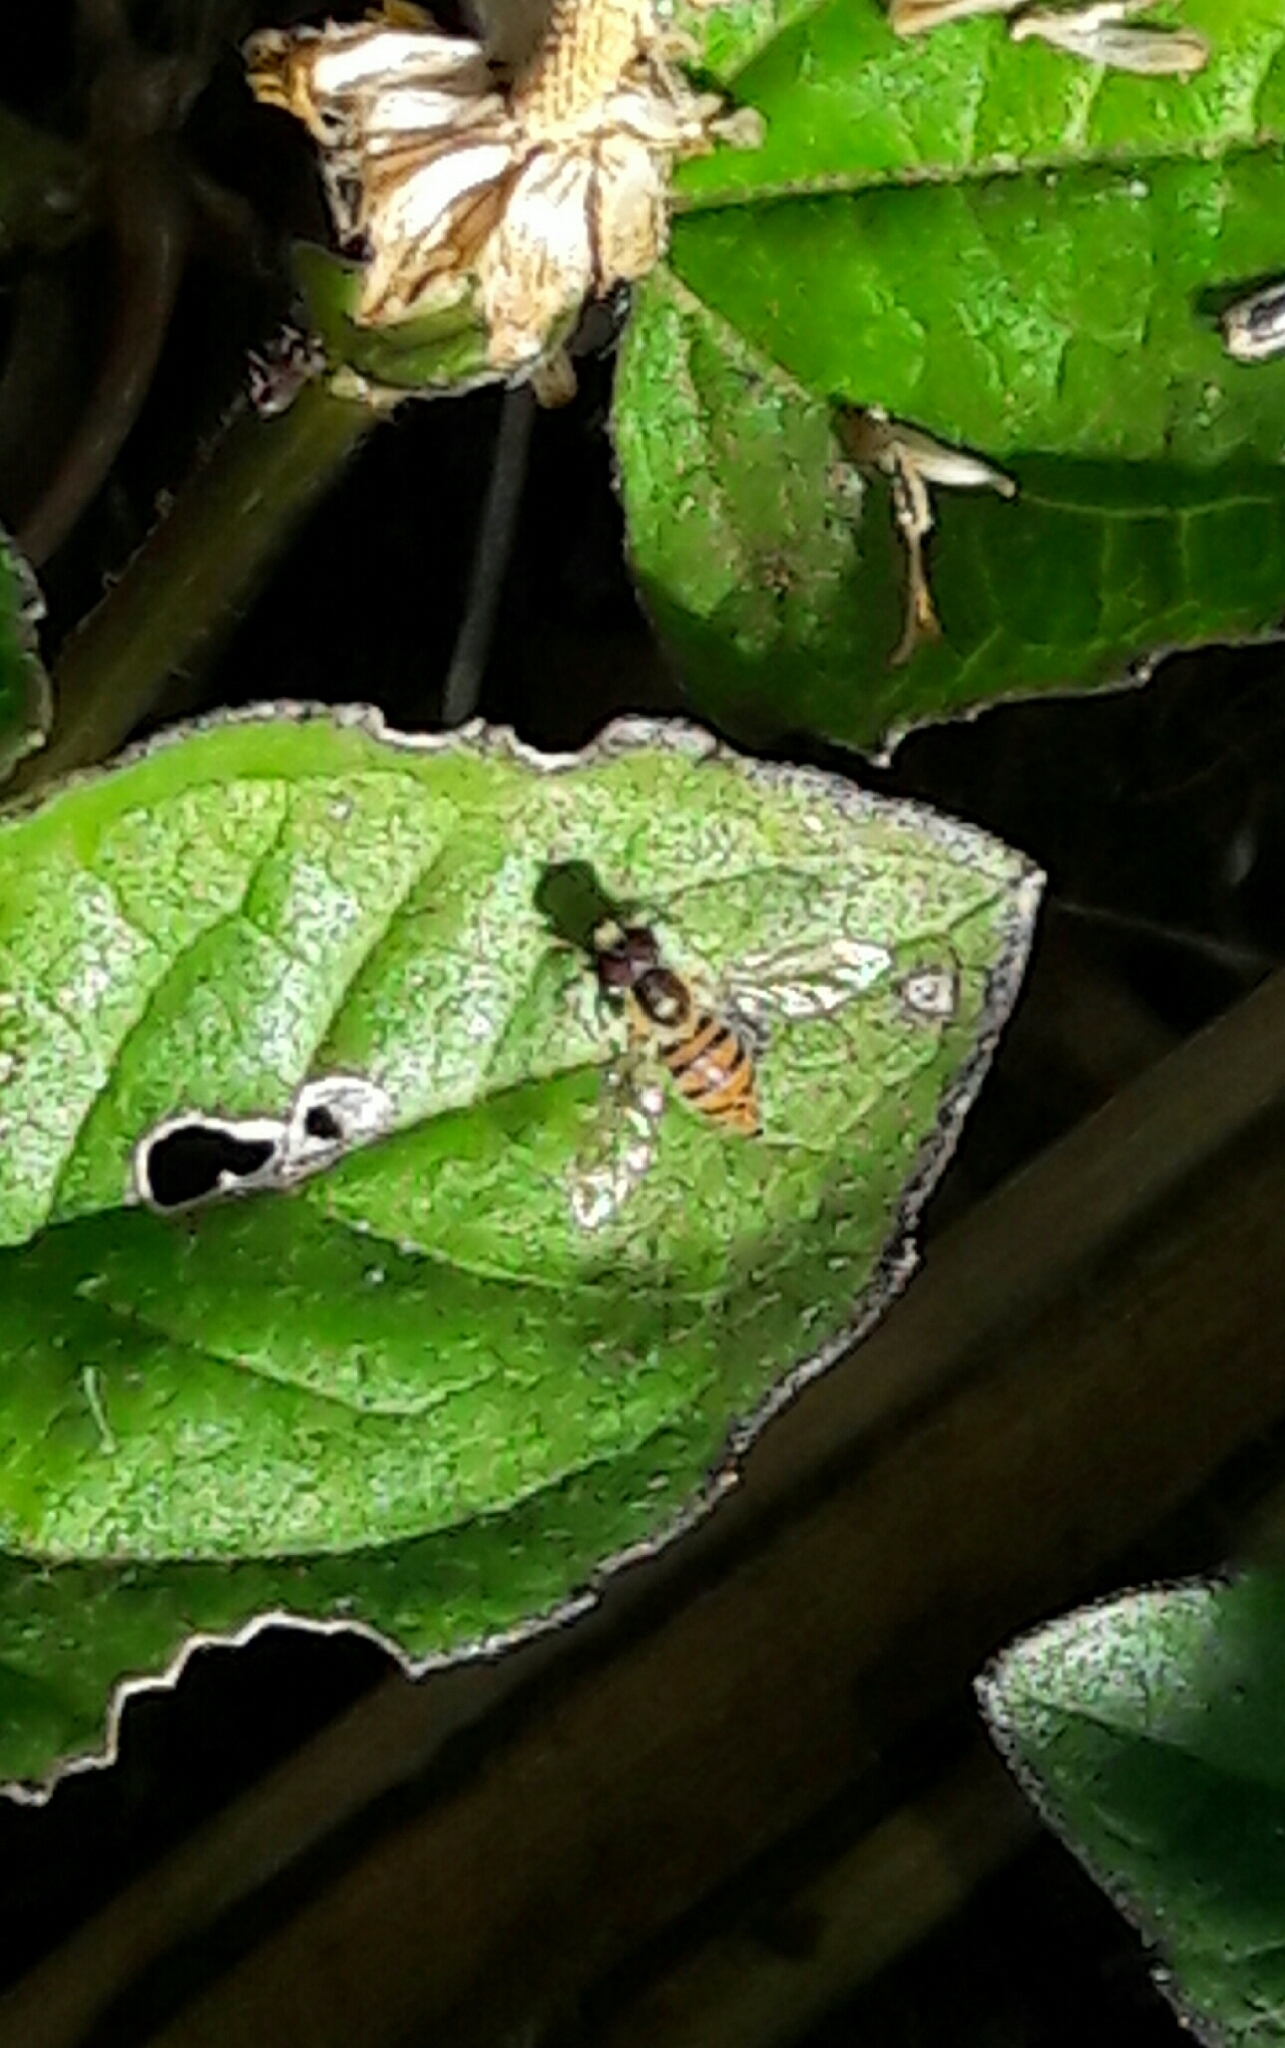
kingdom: Animalia
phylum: Arthropoda
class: Insecta
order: Diptera
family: Syrphidae
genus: Toxomerus
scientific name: Toxomerus
